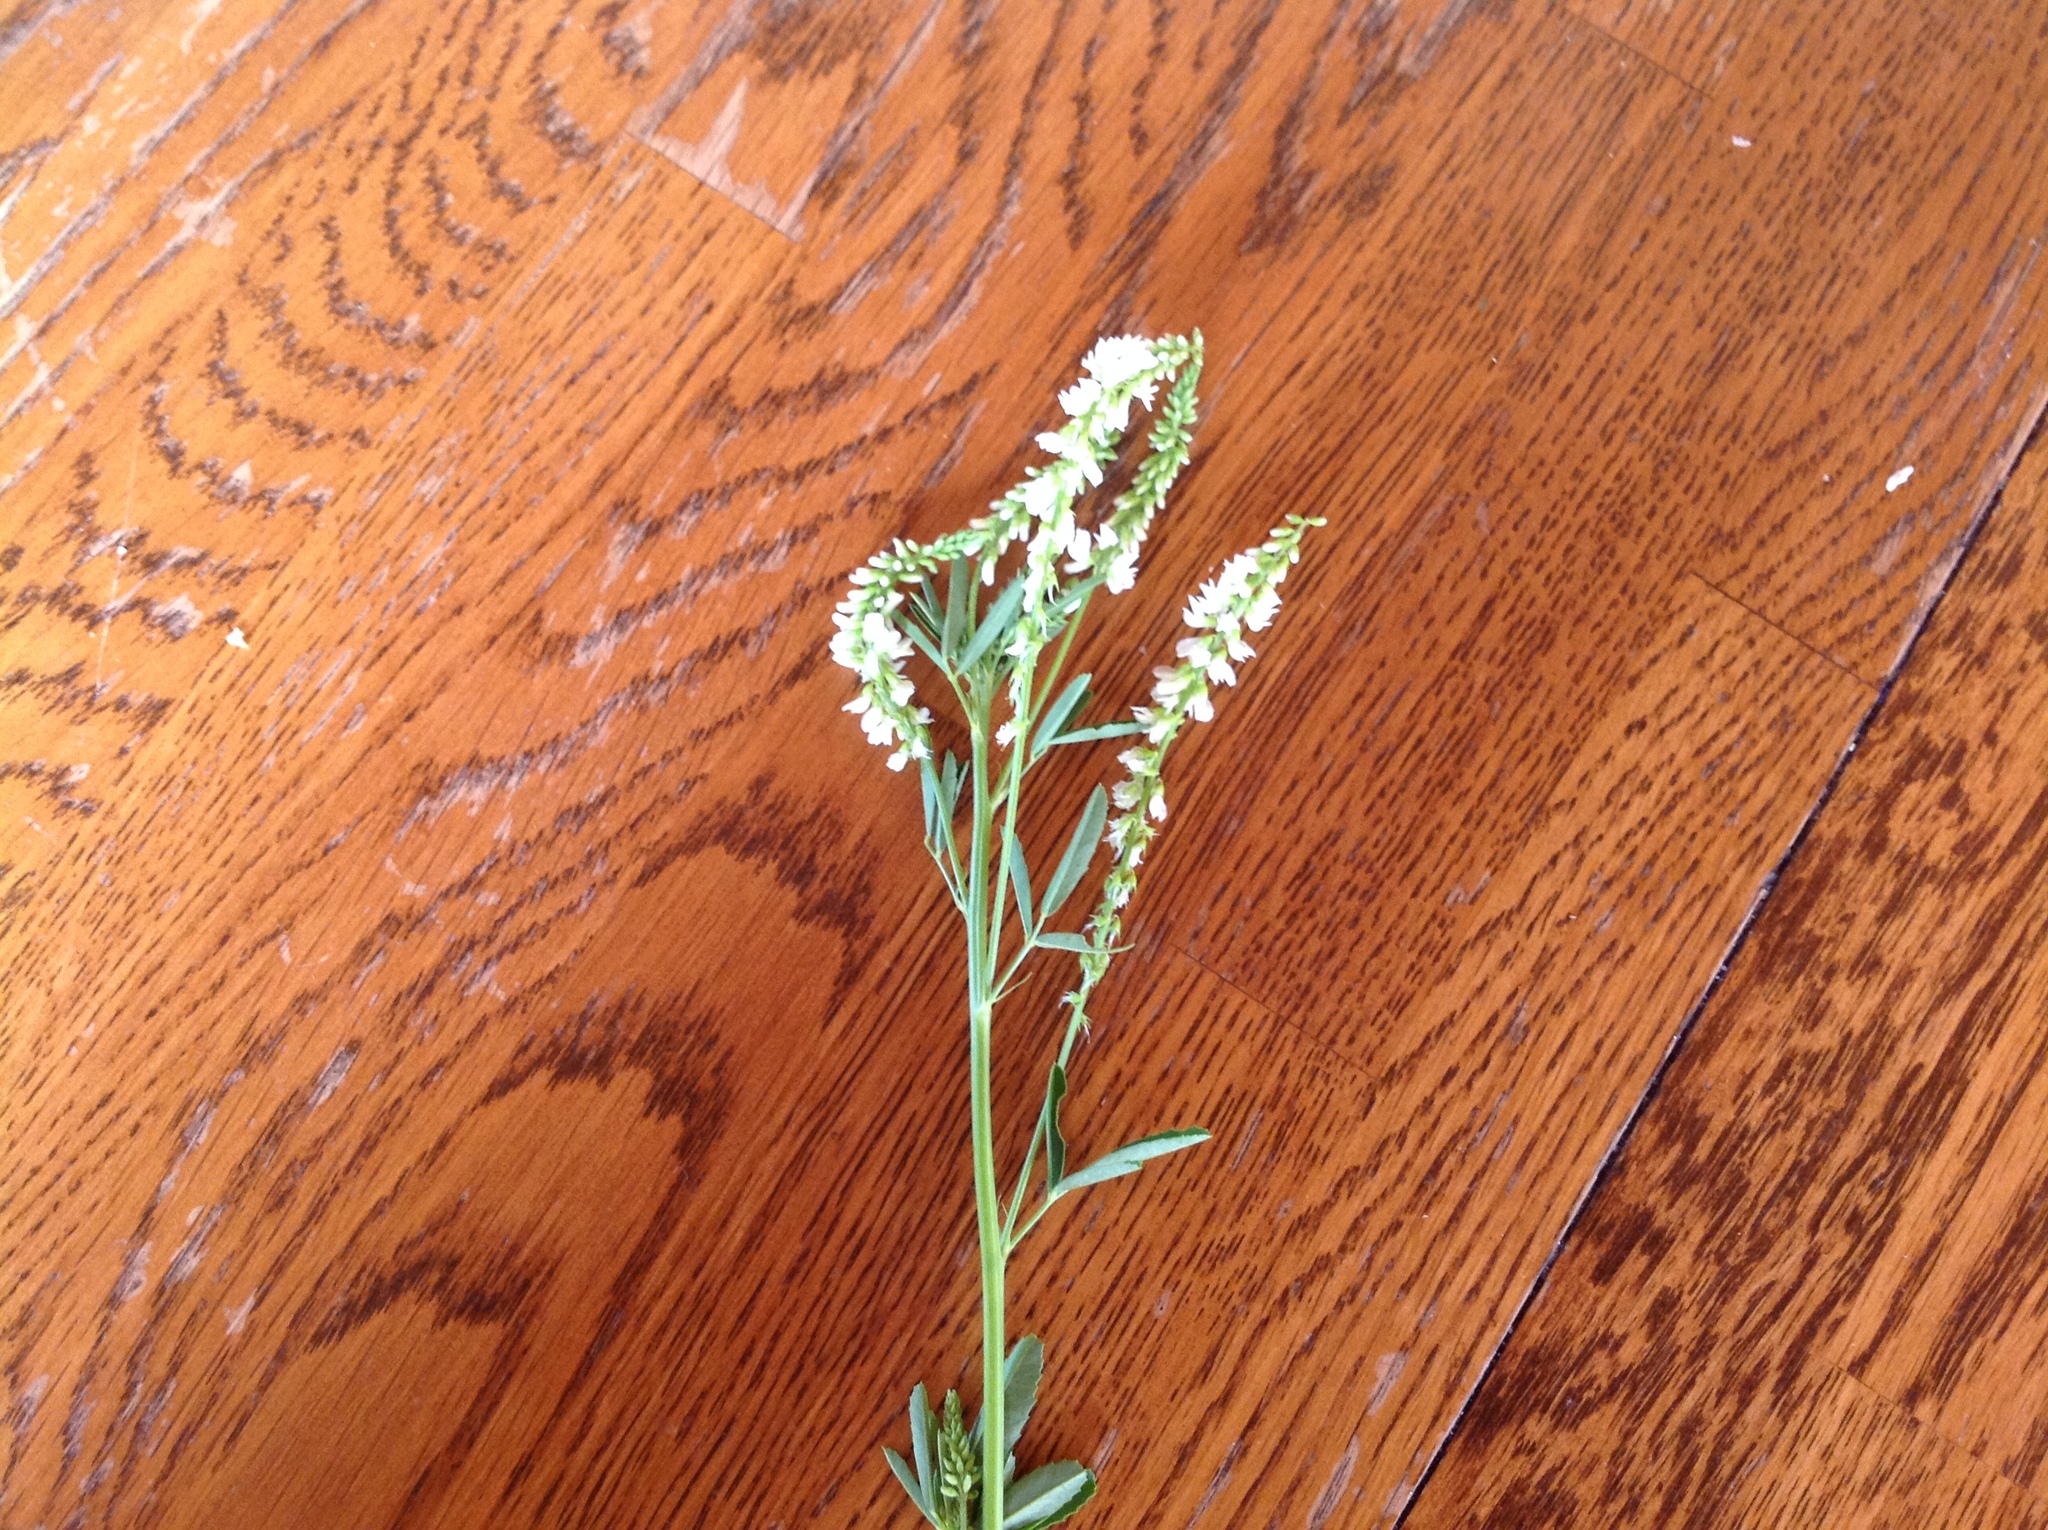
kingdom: Plantae
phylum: Tracheophyta
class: Magnoliopsida
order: Fabales
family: Fabaceae
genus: Melilotus
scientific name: Melilotus albus
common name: White melilot
